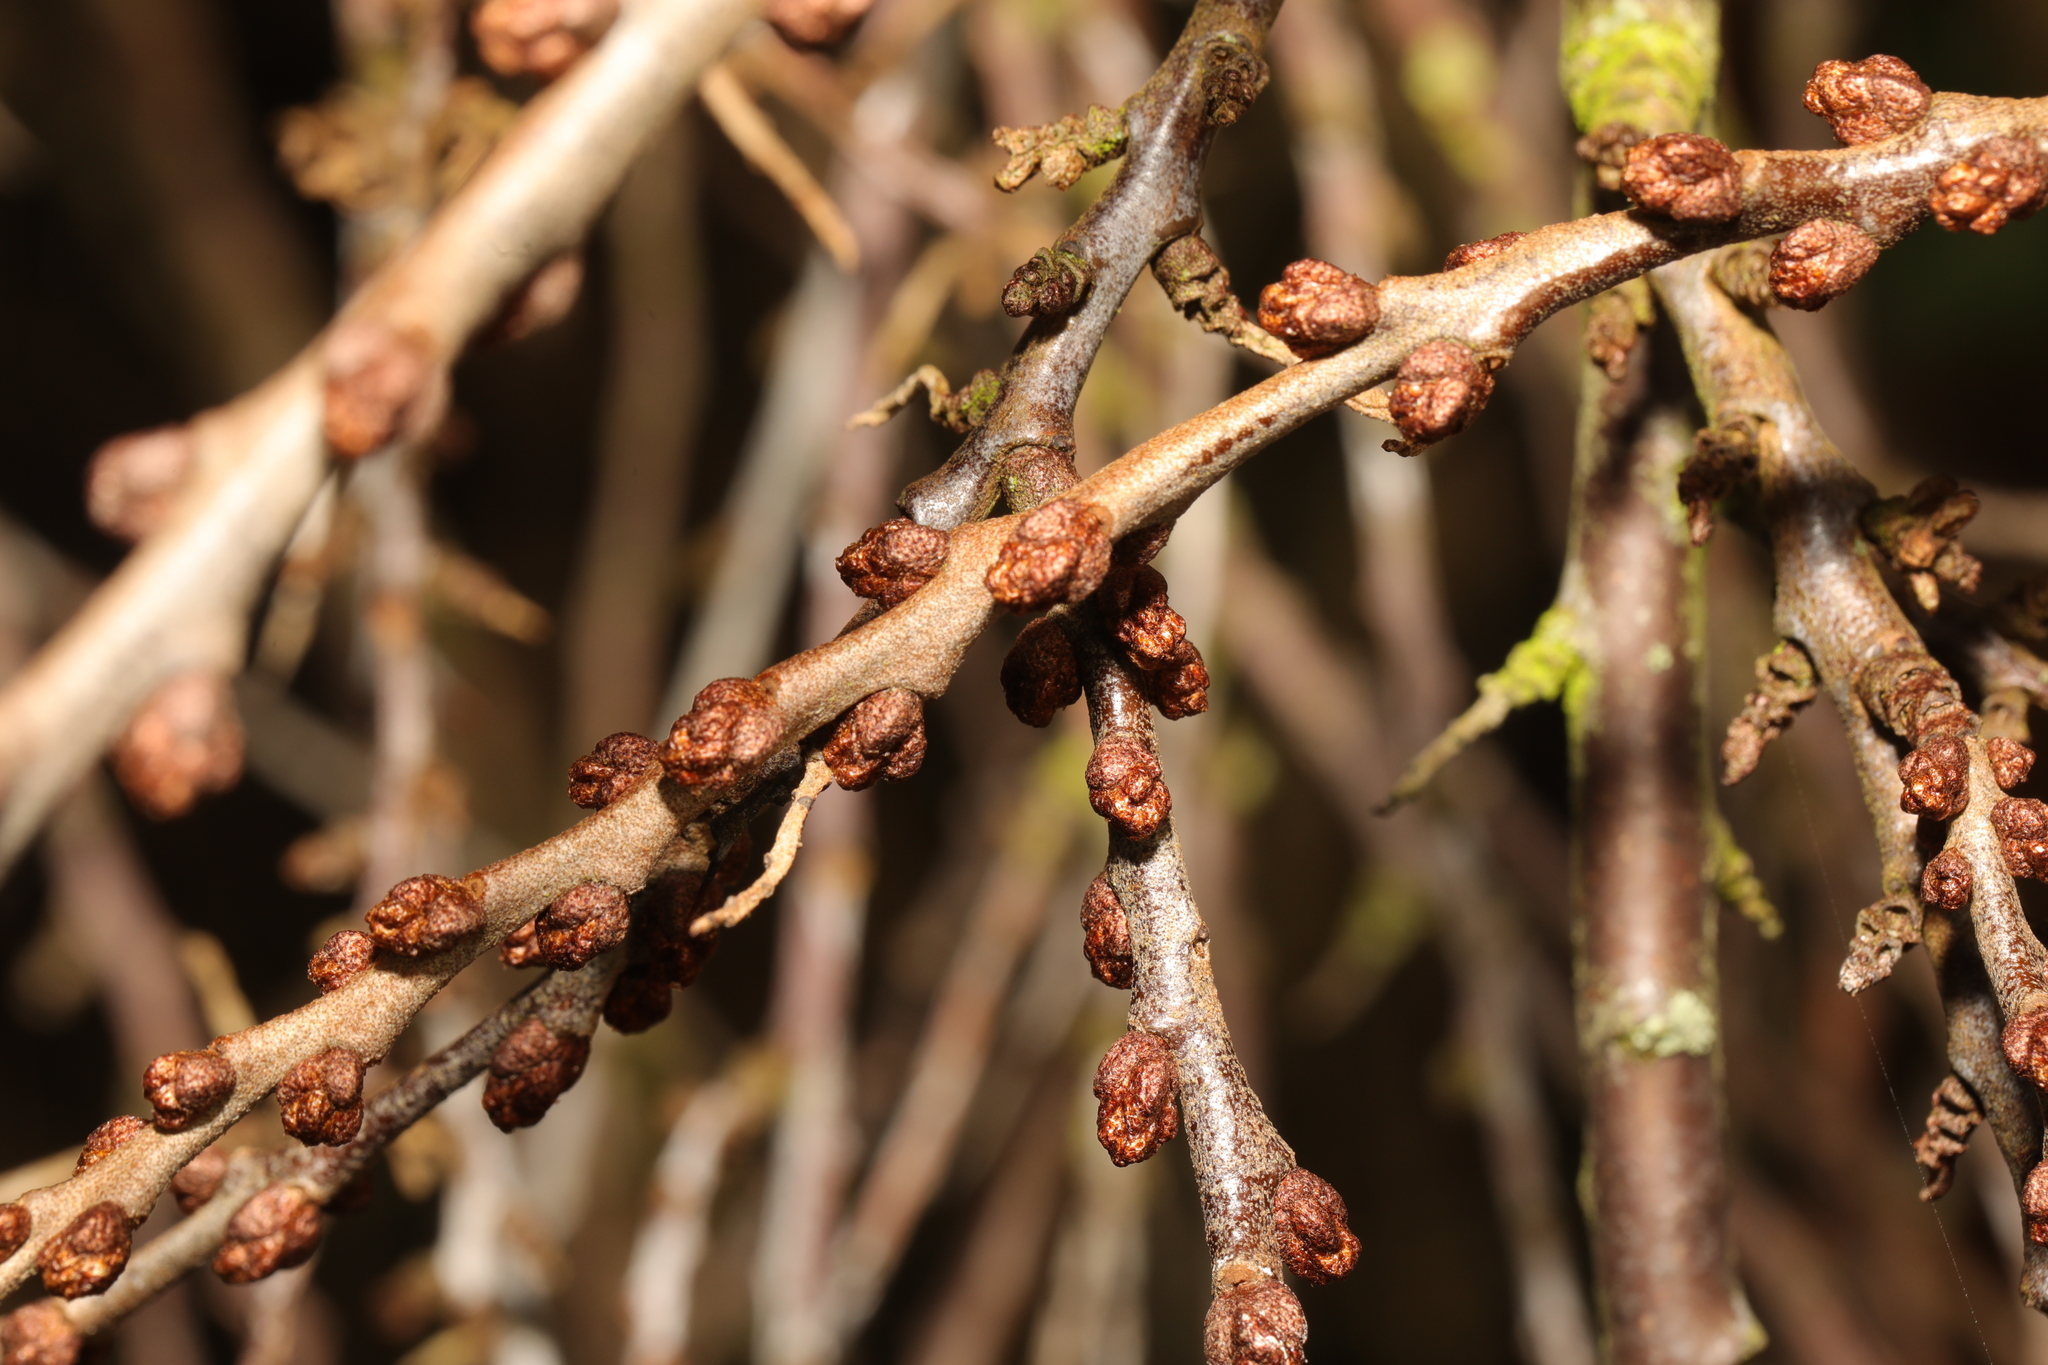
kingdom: Plantae
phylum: Tracheophyta
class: Magnoliopsida
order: Rosales
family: Elaeagnaceae
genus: Hippophae
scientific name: Hippophae rhamnoides
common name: Sea-buckthorn
